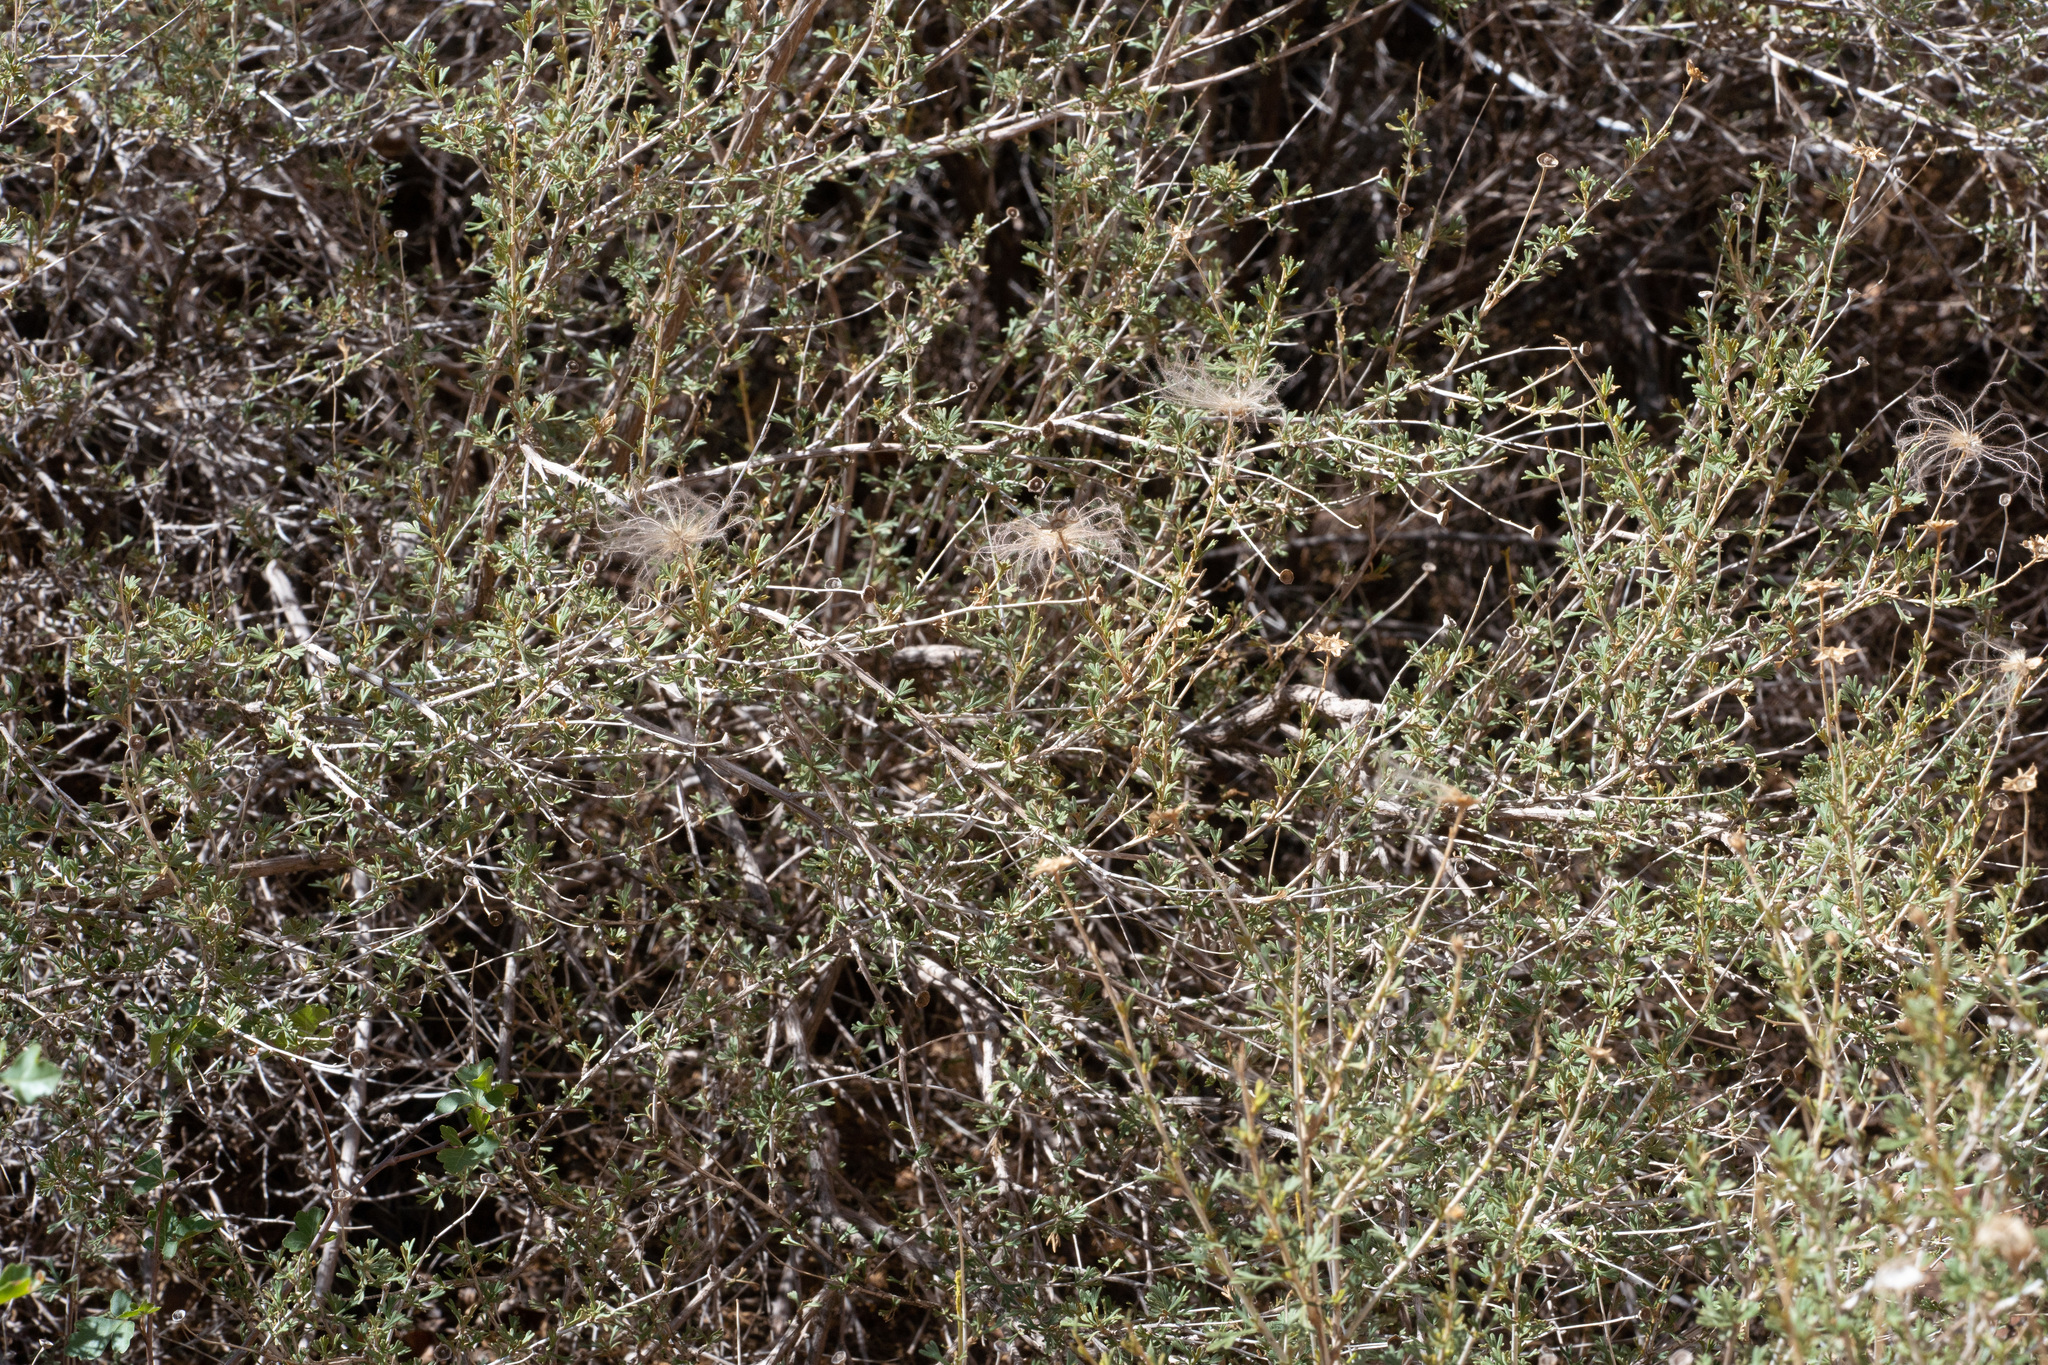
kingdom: Plantae
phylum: Tracheophyta
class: Magnoliopsida
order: Rosales
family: Rosaceae
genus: Fallugia
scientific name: Fallugia paradoxa
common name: Apache-plume
